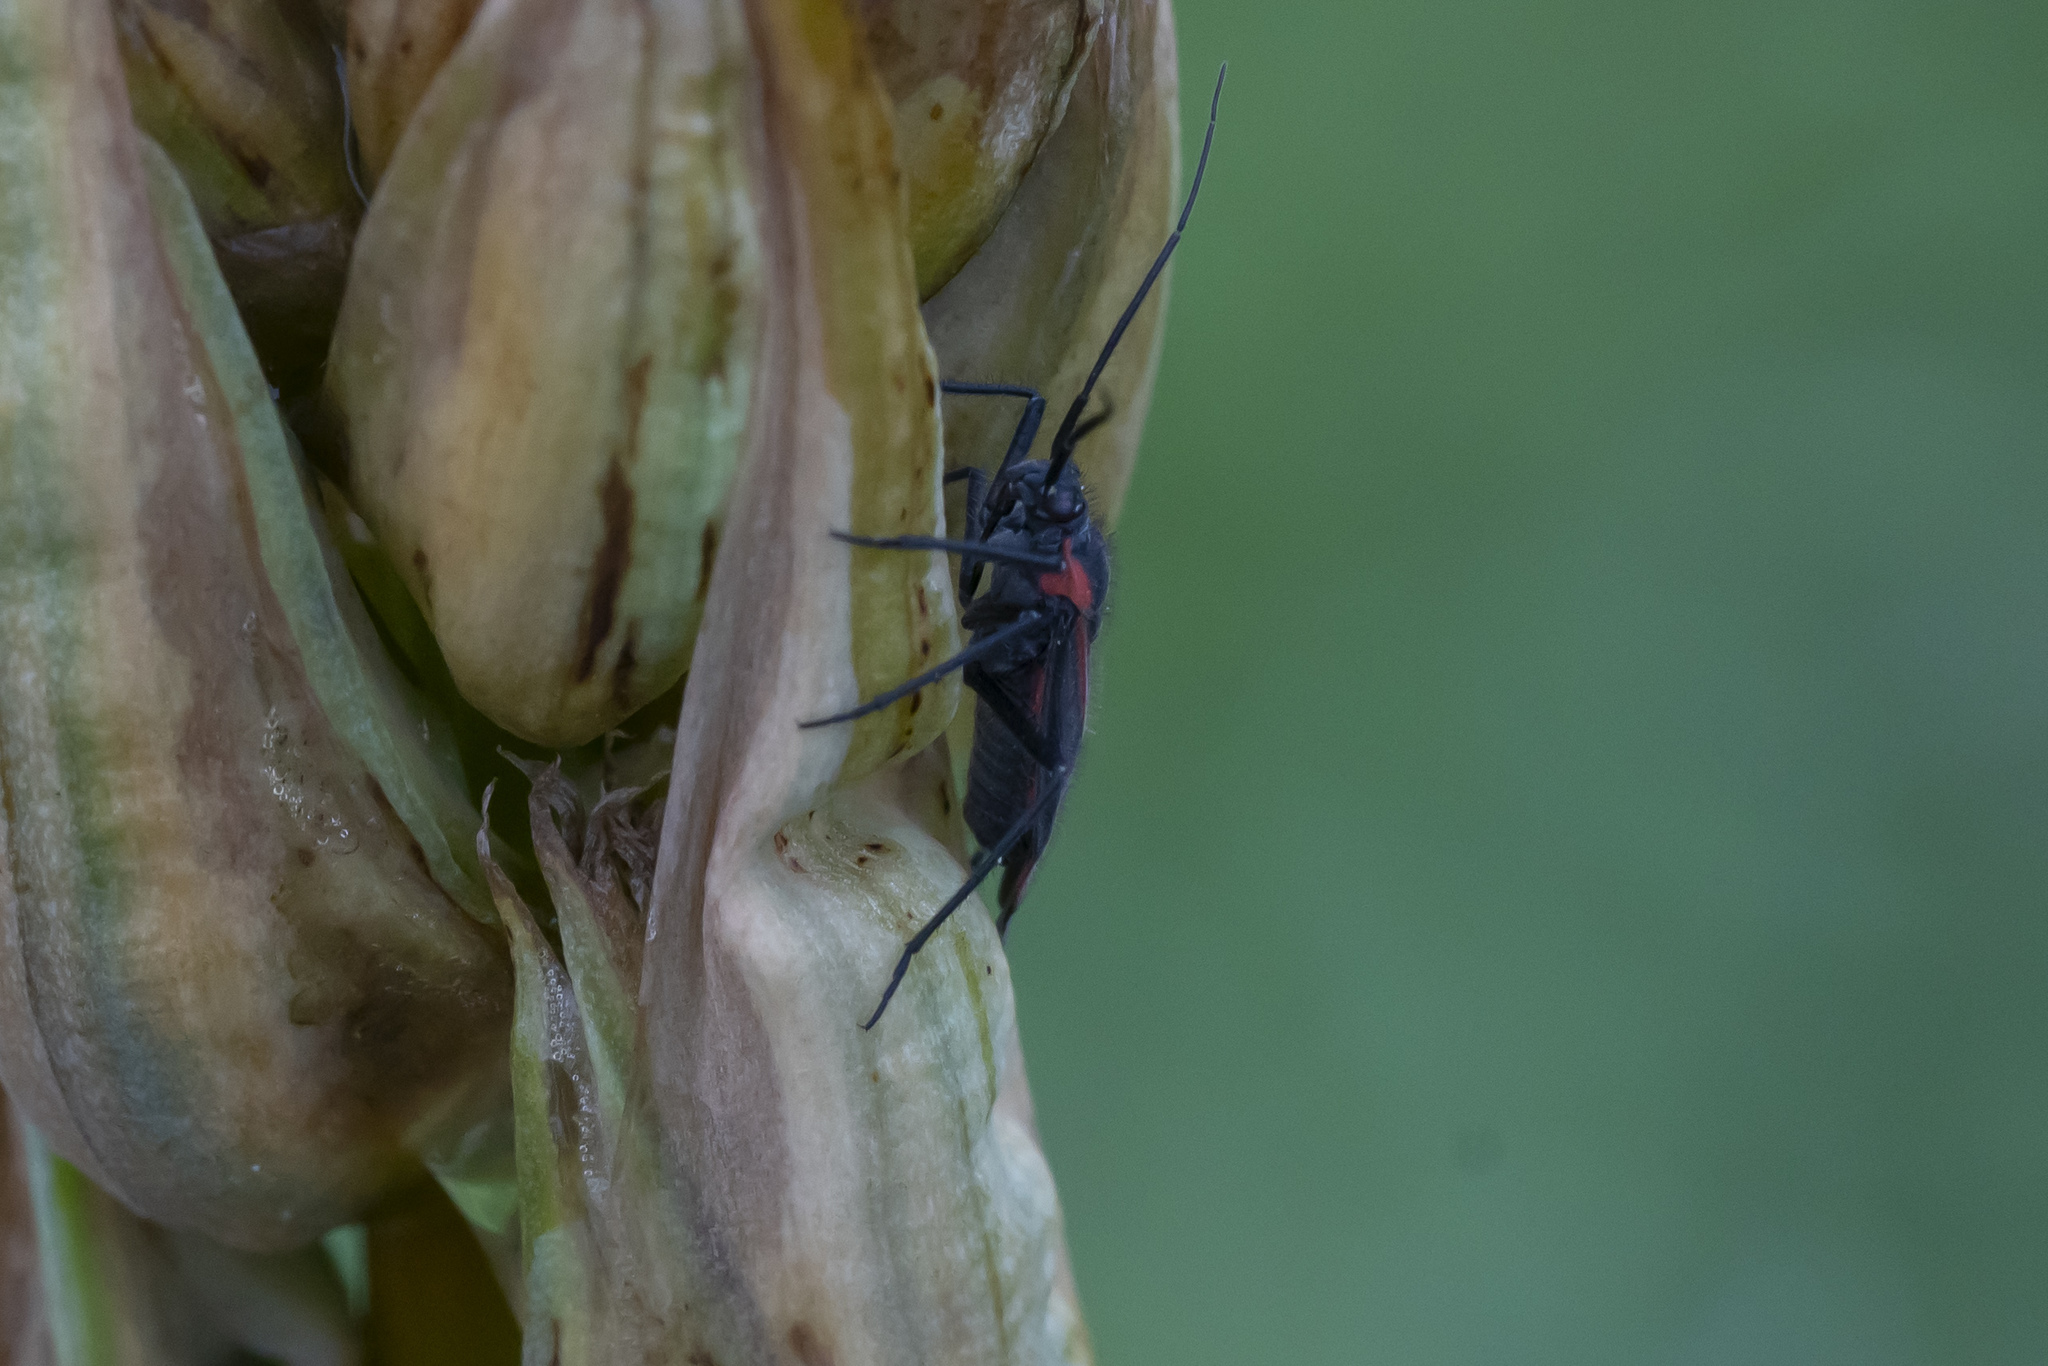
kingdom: Animalia
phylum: Arthropoda
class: Insecta
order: Hemiptera
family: Miridae
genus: Horistus
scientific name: Horistus infuscatus
